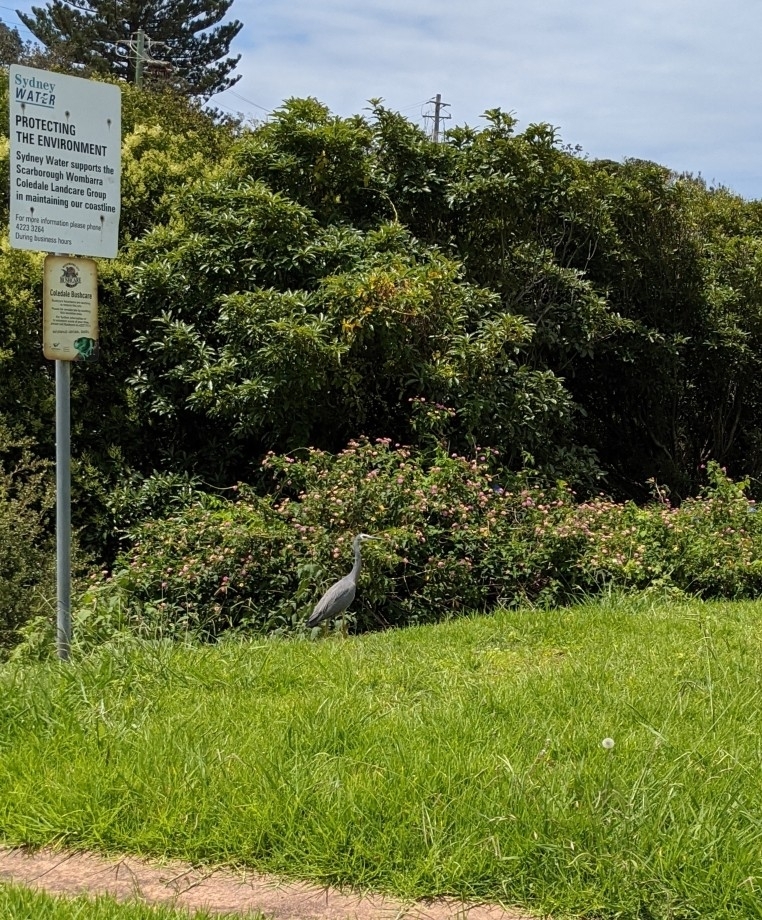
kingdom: Animalia
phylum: Chordata
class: Aves
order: Pelecaniformes
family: Ardeidae
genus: Egretta
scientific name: Egretta novaehollandiae
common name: White-faced heron
